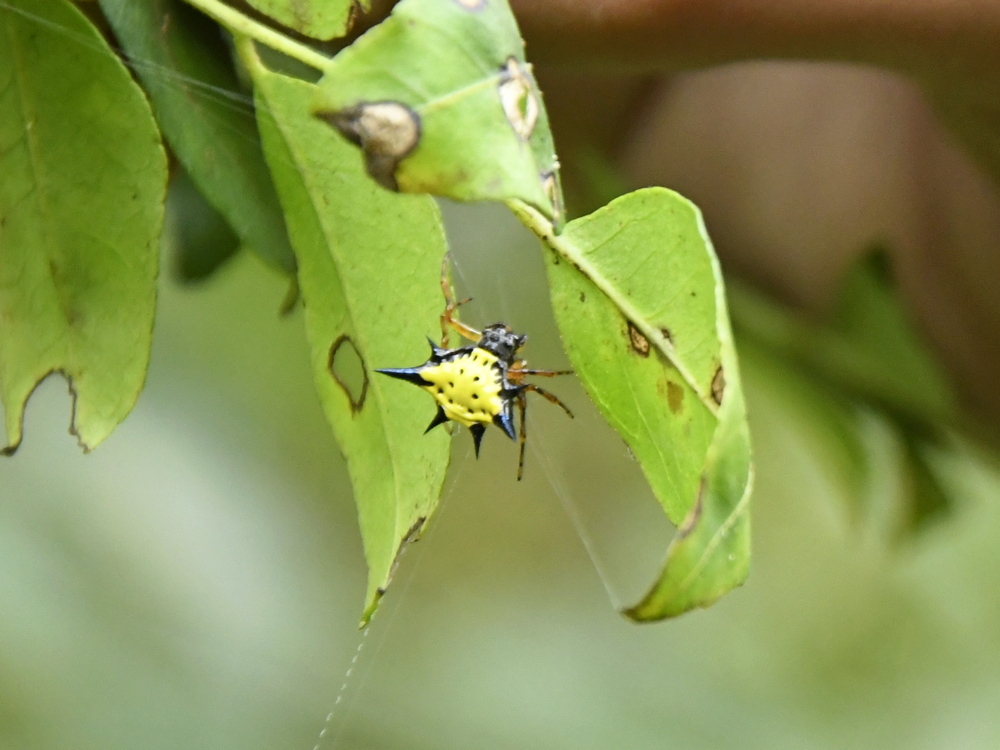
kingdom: Animalia
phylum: Arthropoda
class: Arachnida
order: Araneae
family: Araneidae
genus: Macracantha
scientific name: Macracantha hasselti
